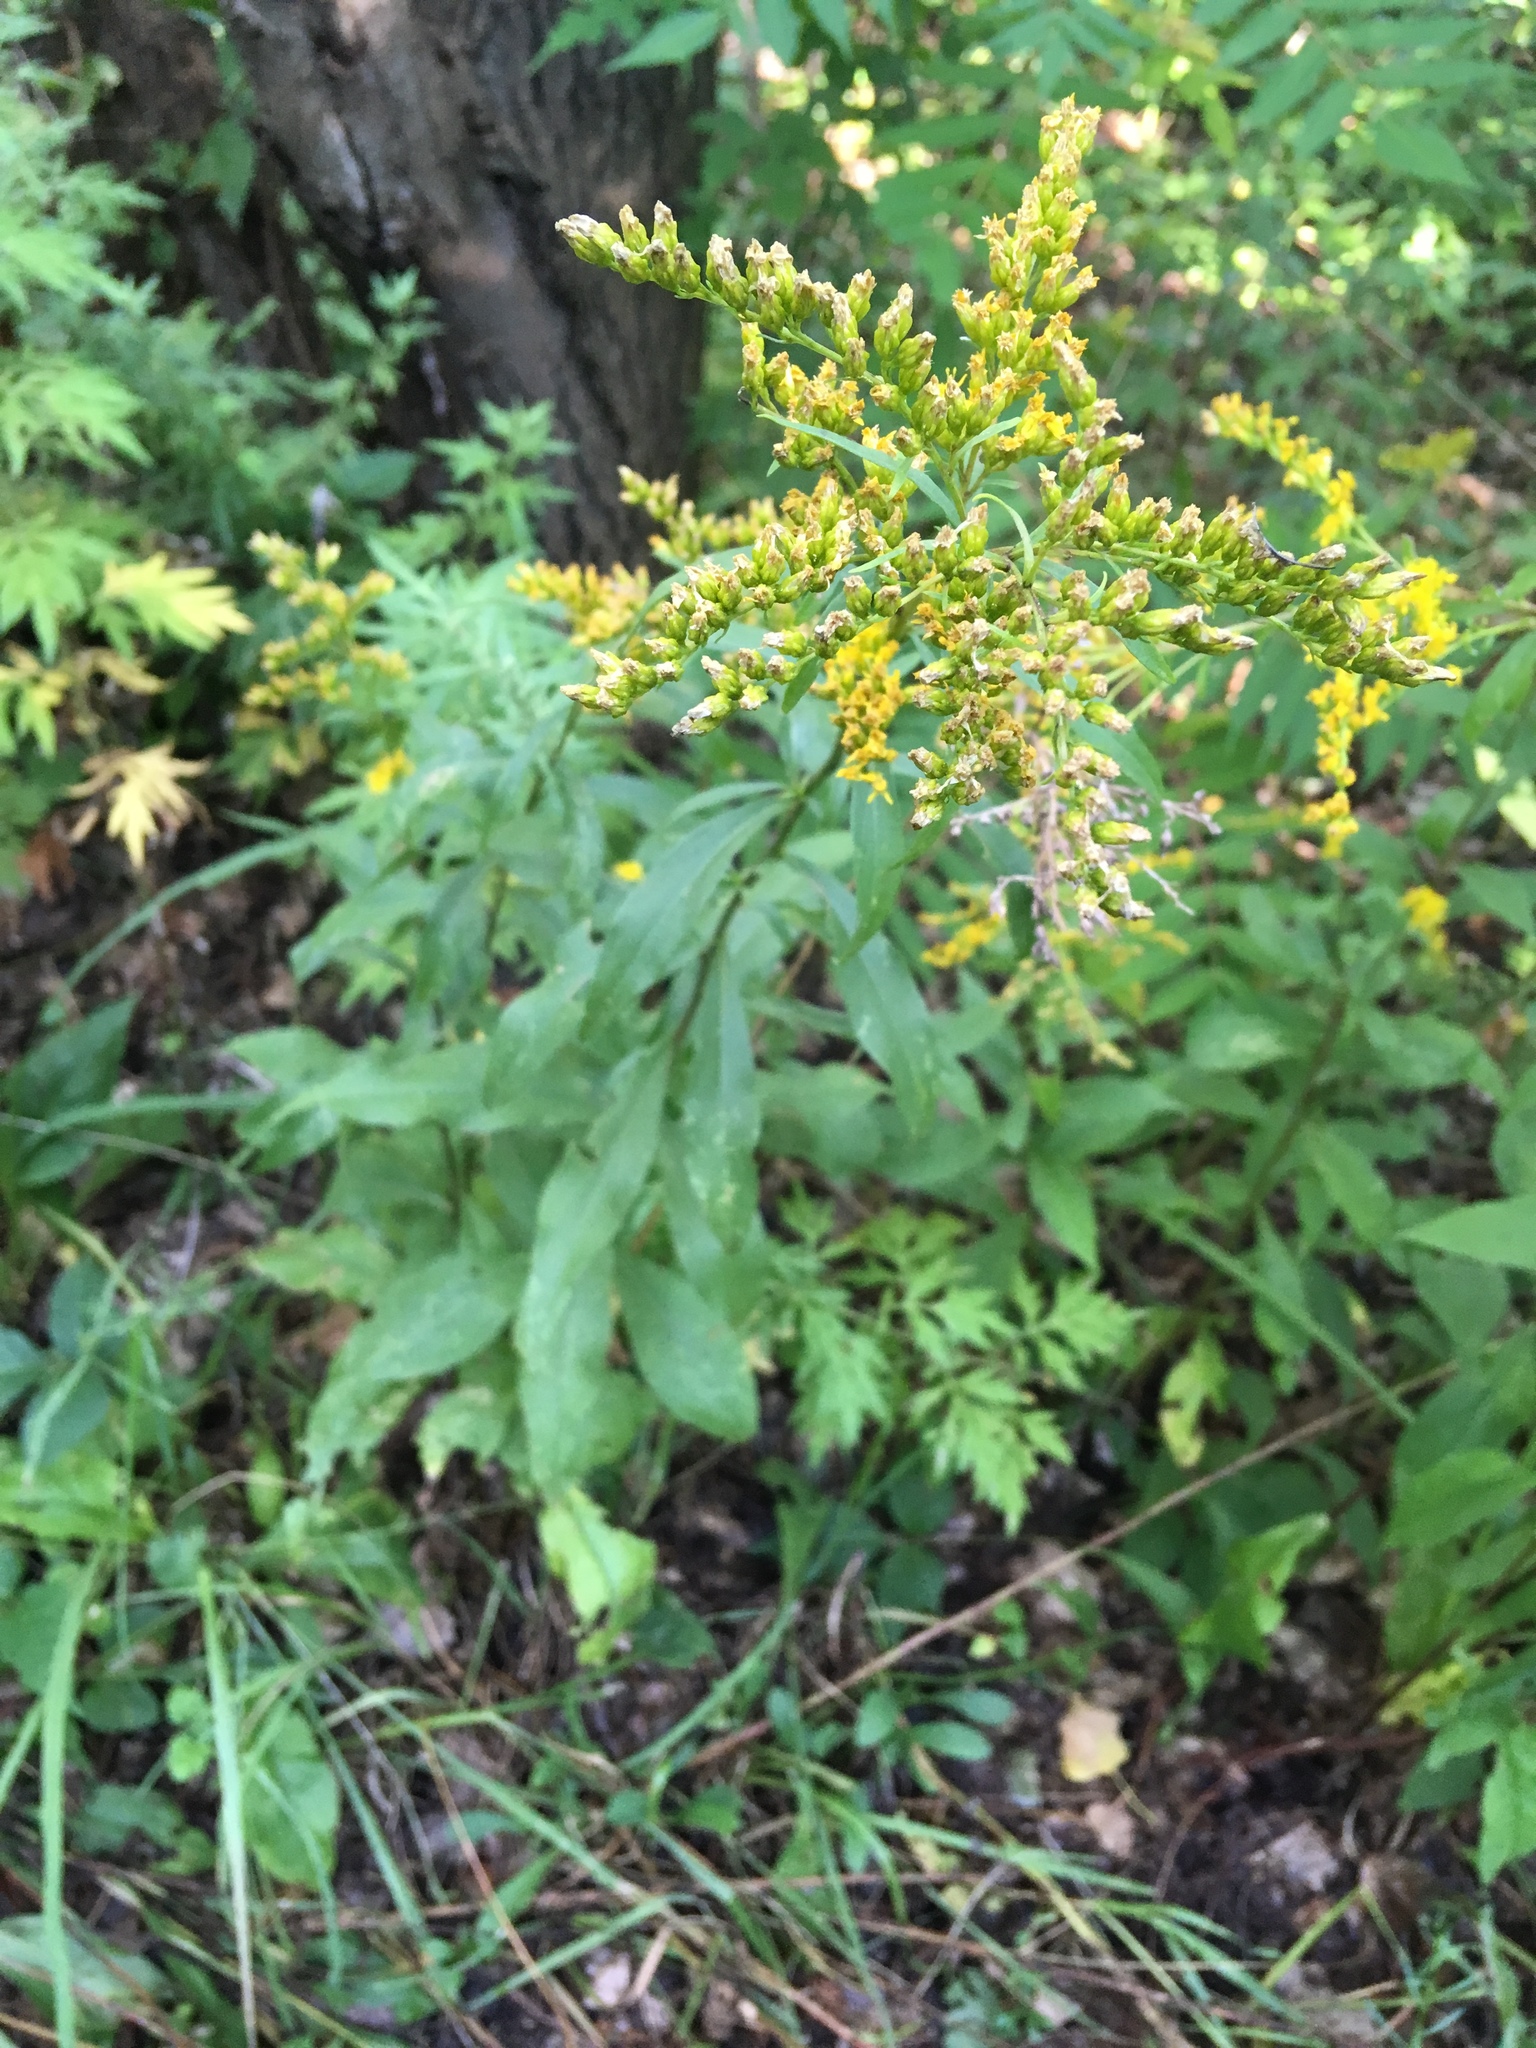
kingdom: Plantae
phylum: Tracheophyta
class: Magnoliopsida
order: Asterales
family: Asteraceae
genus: Solidago
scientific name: Solidago juncea
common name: Early goldenrod
